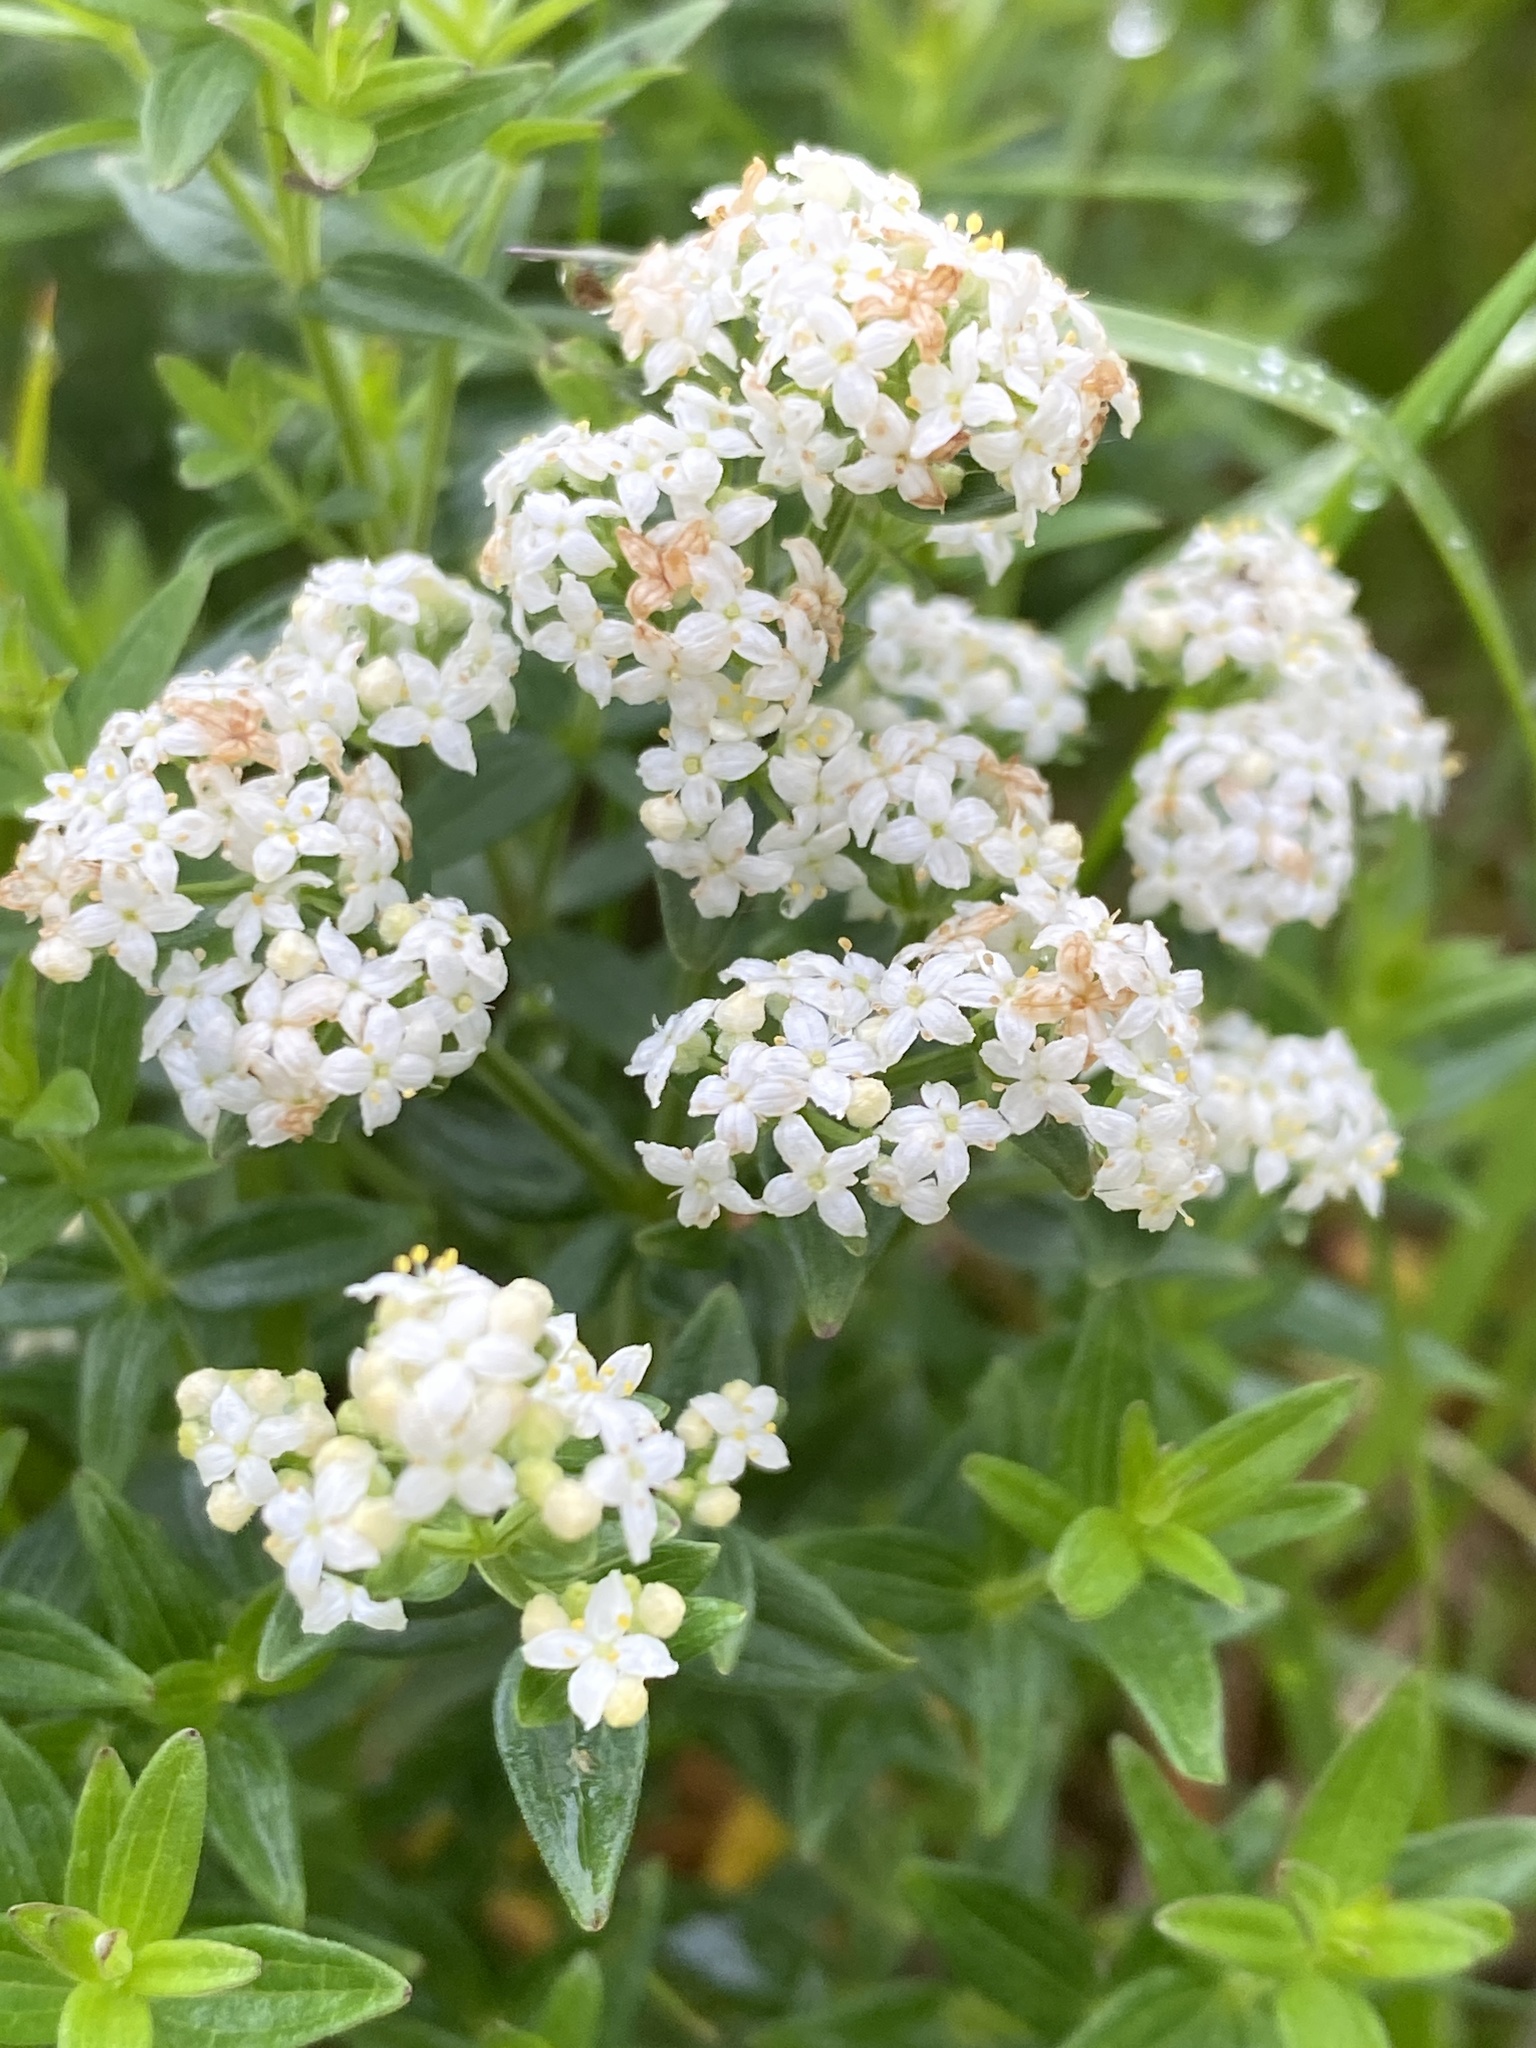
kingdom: Plantae
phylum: Tracheophyta
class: Magnoliopsida
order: Gentianales
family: Rubiaceae
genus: Galium
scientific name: Galium boreale
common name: Northern bedstraw
